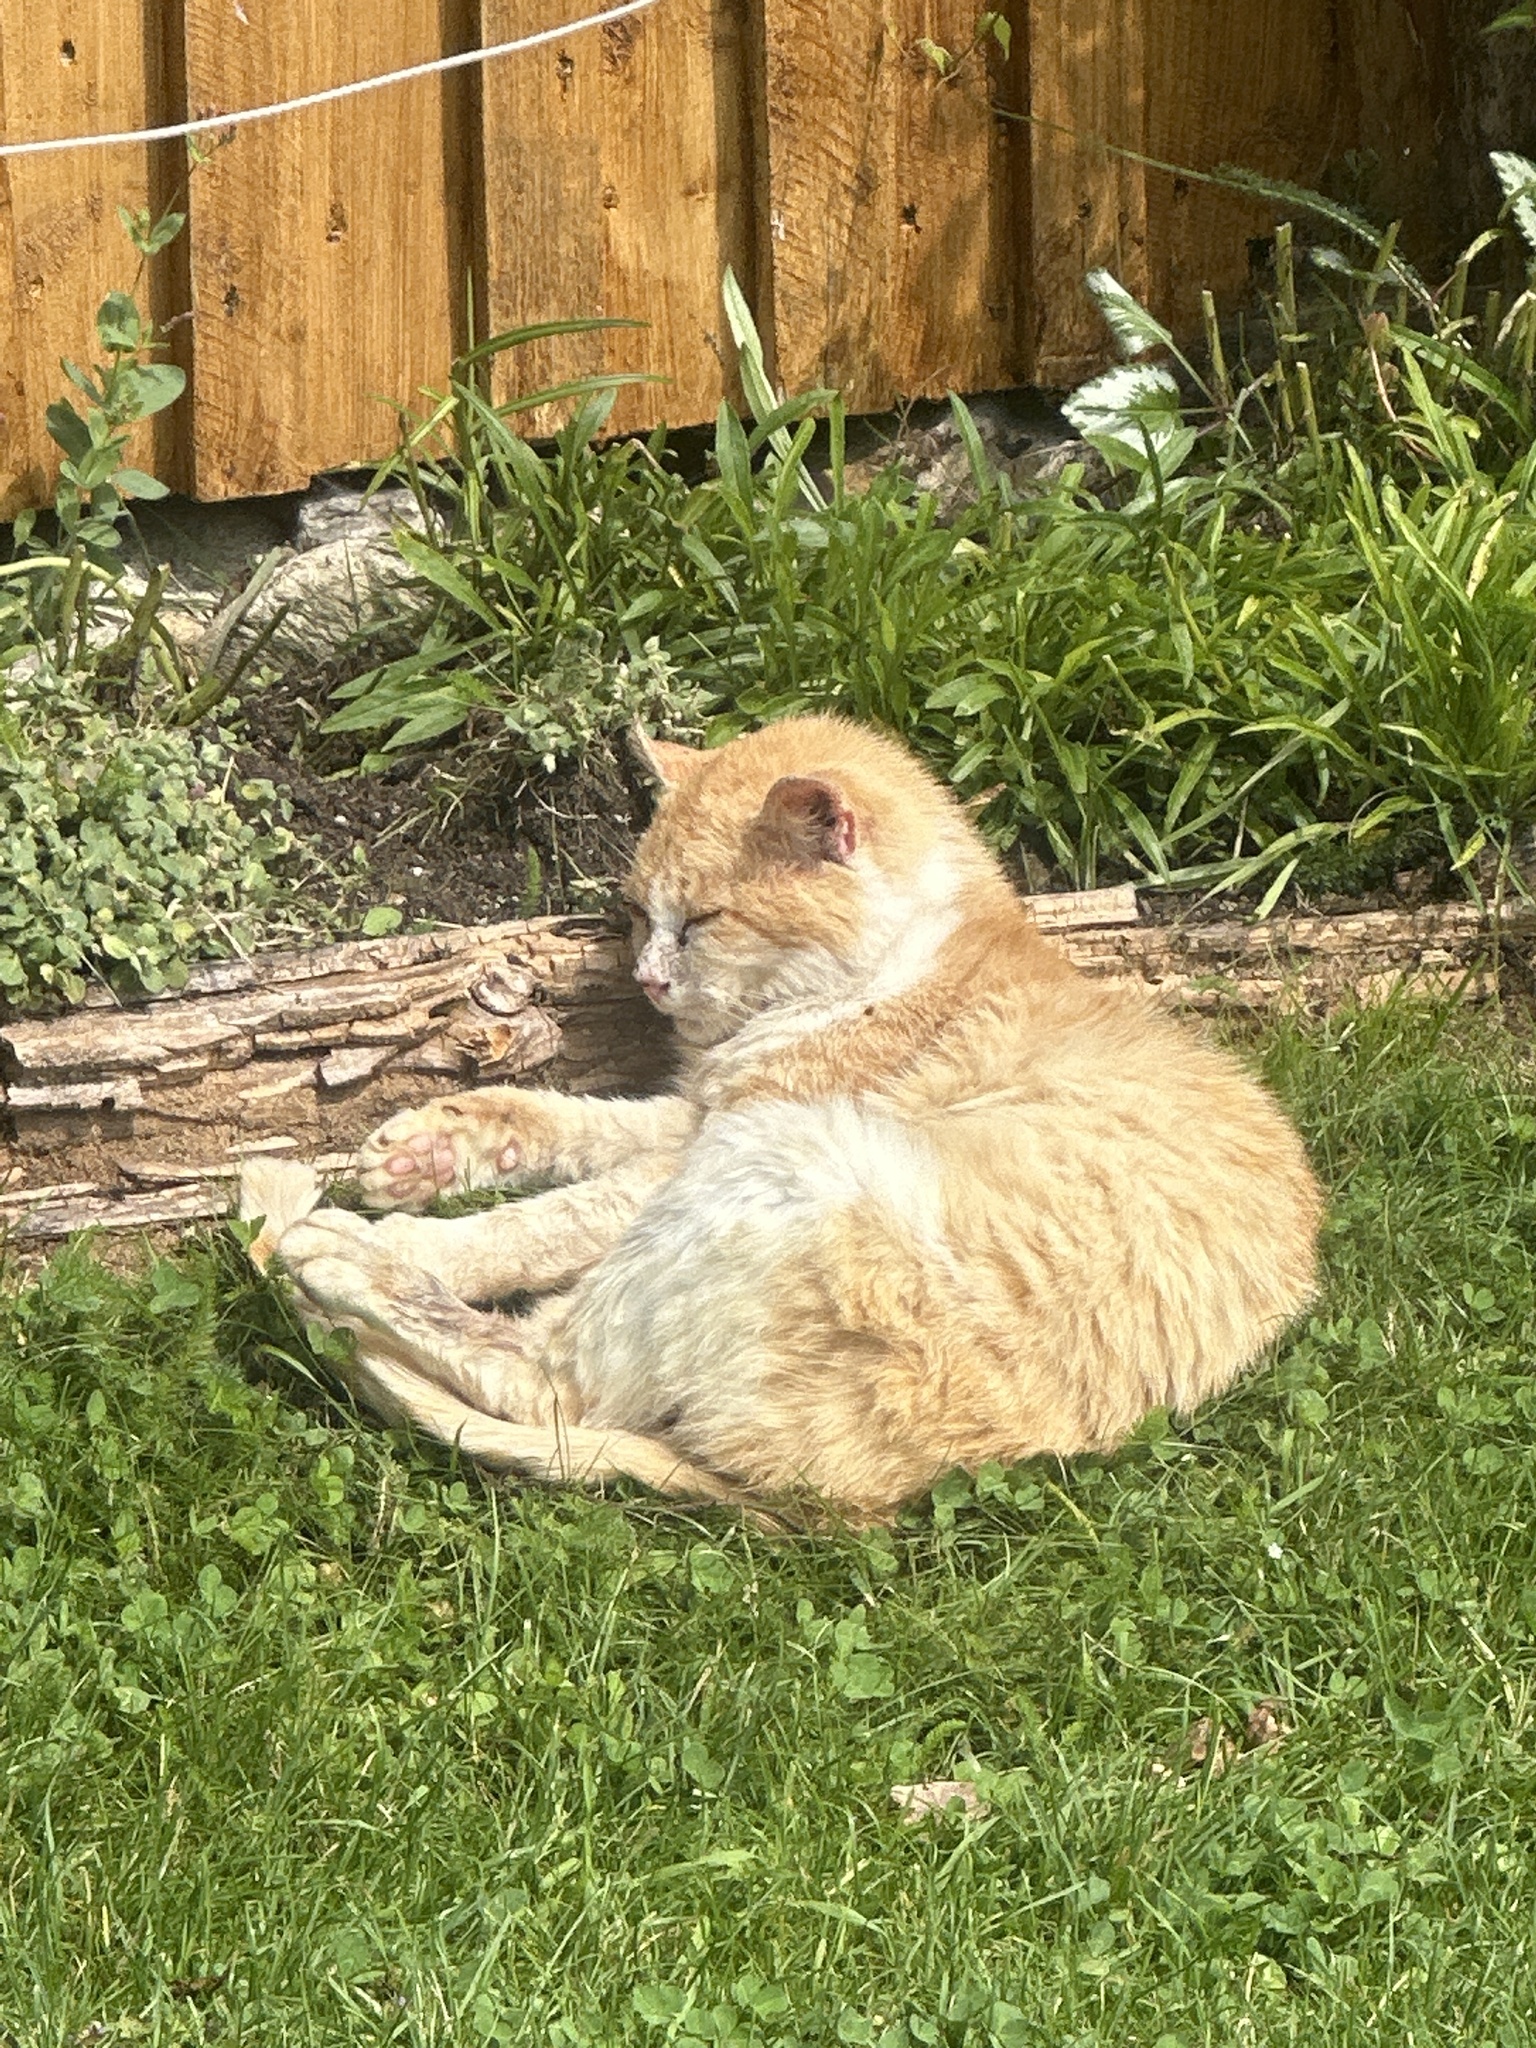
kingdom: Animalia
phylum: Chordata
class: Mammalia
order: Carnivora
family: Felidae
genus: Felis
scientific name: Felis catus
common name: Domestic cat
